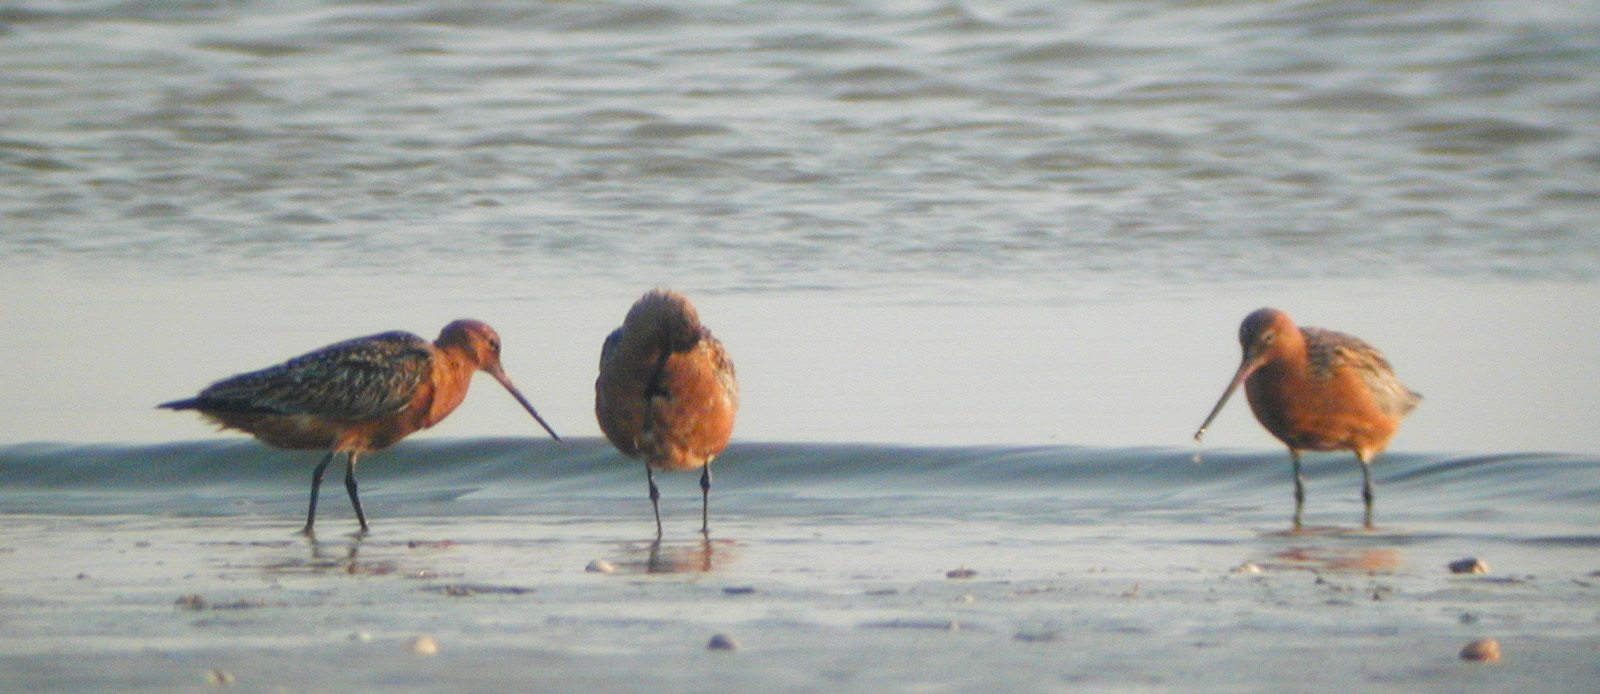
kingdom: Animalia
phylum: Chordata
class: Aves
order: Charadriiformes
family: Scolopacidae
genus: Limosa
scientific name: Limosa lapponica
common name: Bar-tailed godwit
